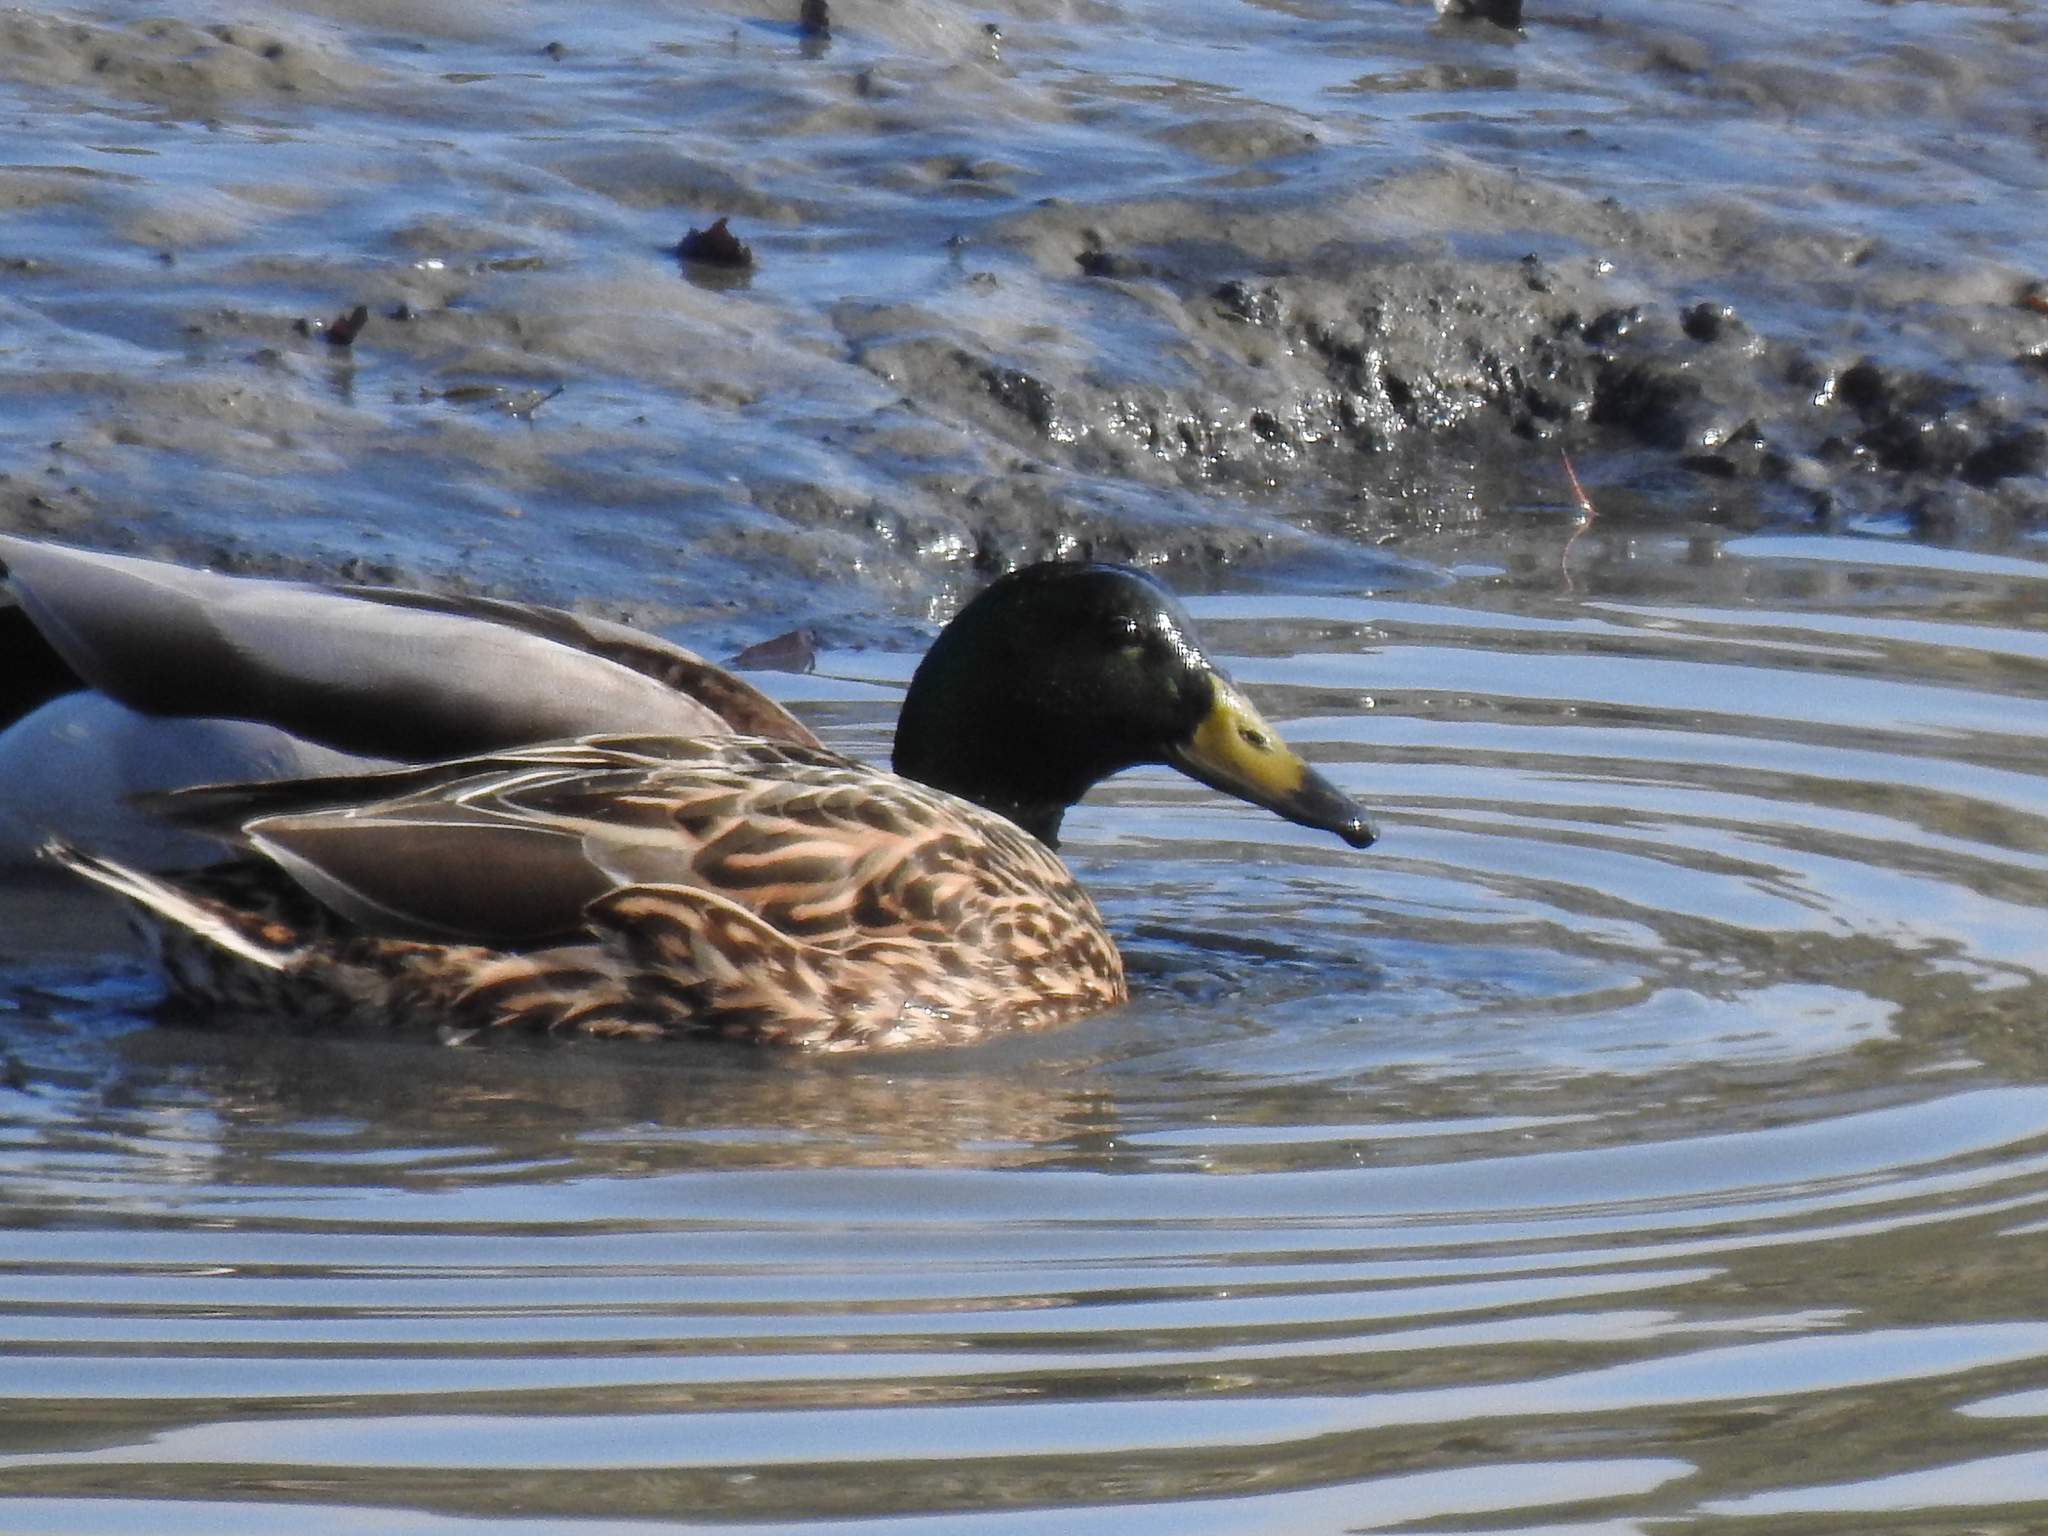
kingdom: Animalia
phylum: Chordata
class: Aves
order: Anseriformes
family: Anatidae
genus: Anas
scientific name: Anas platyrhynchos
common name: Mallard
